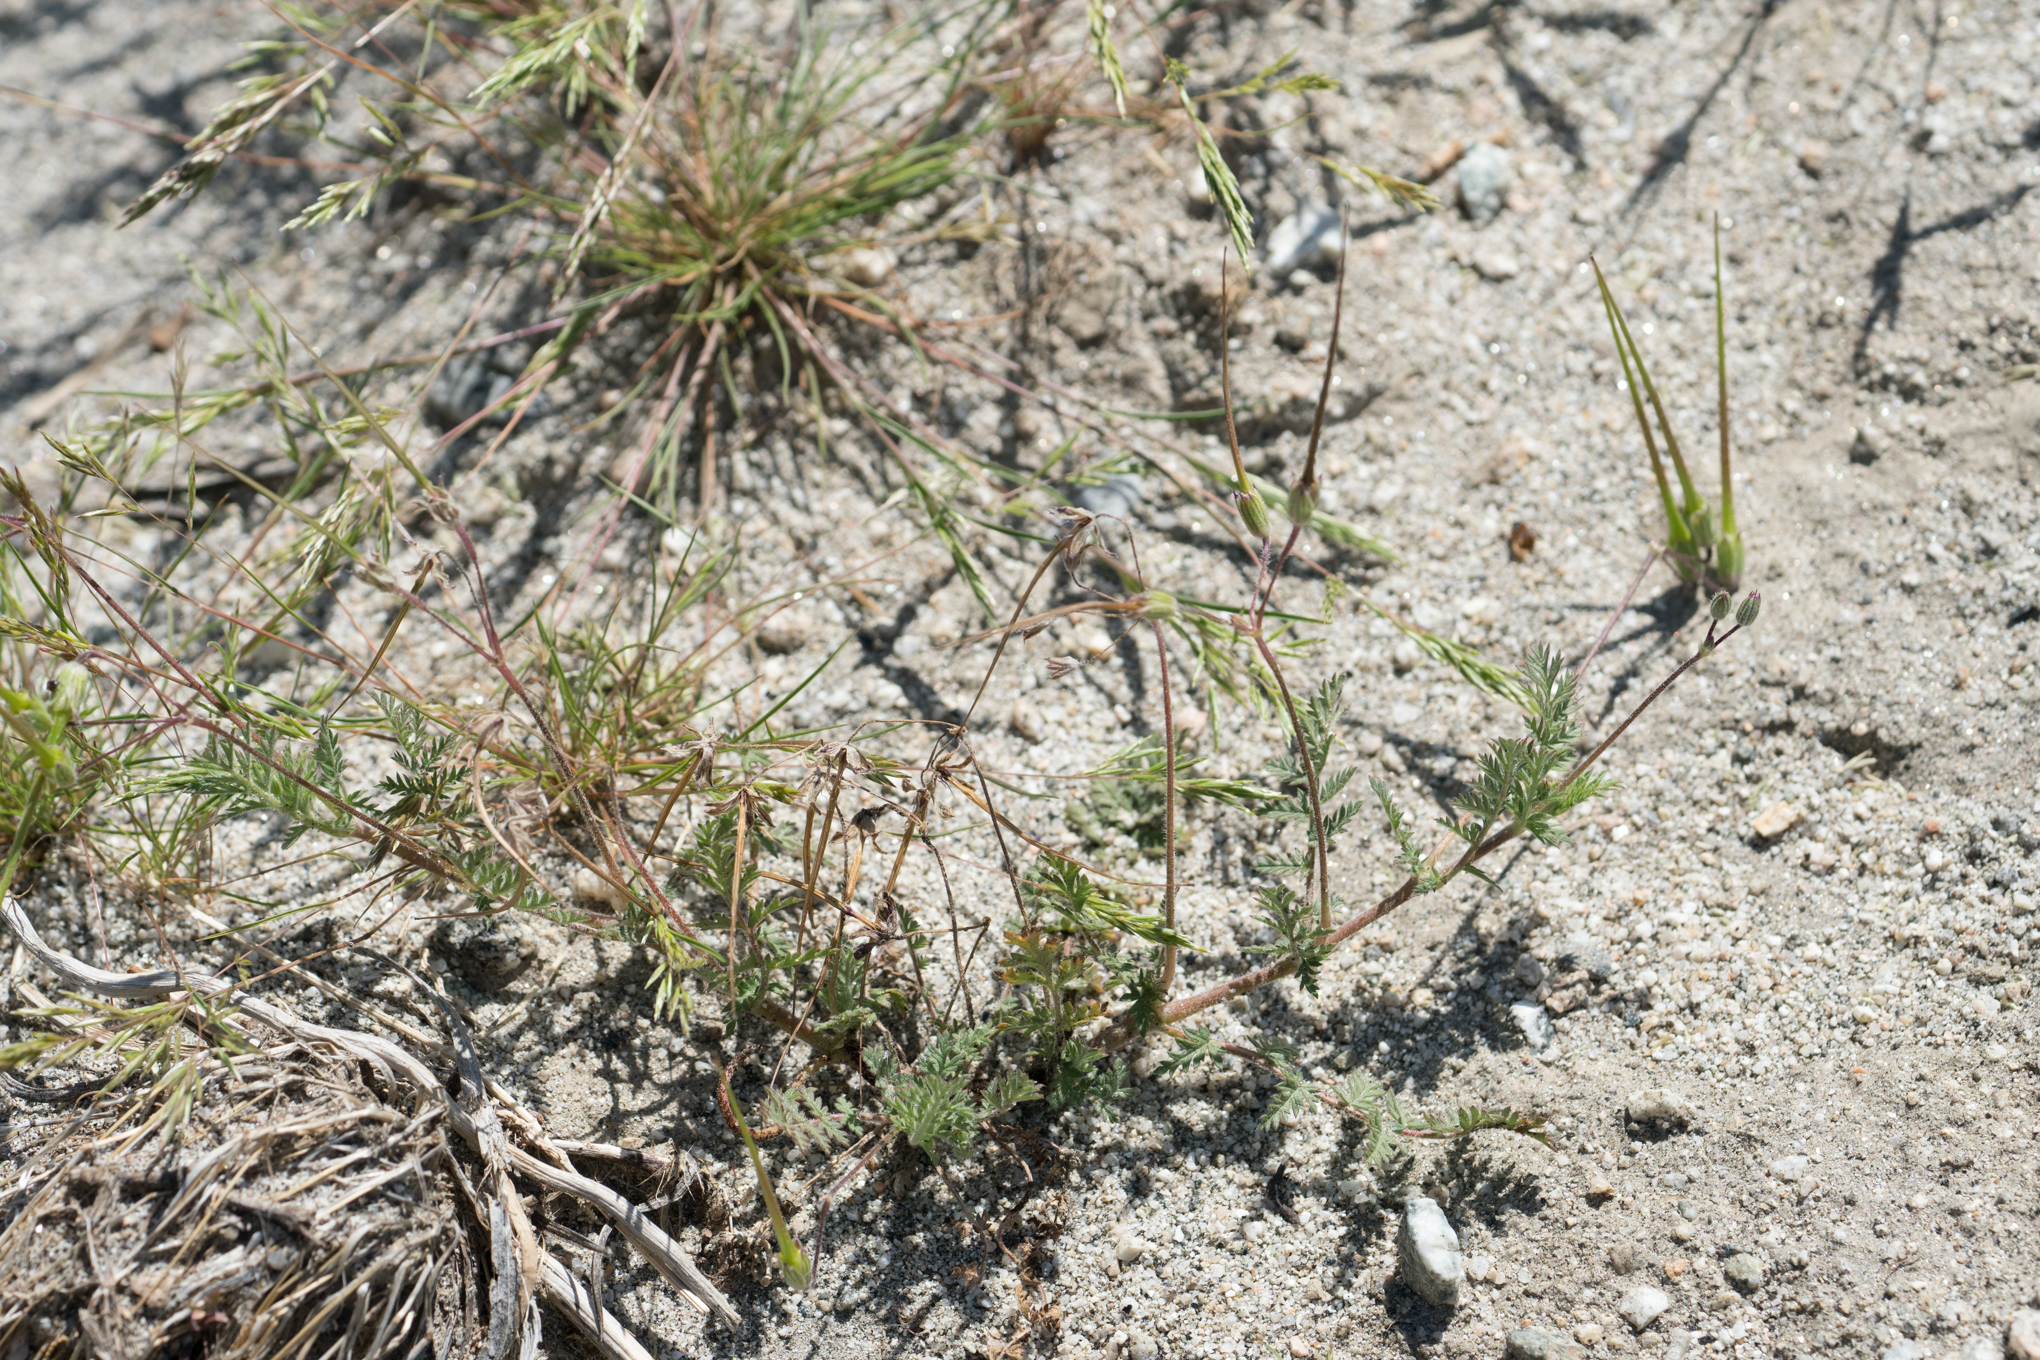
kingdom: Plantae
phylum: Tracheophyta
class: Magnoliopsida
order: Geraniales
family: Geraniaceae
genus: Erodium
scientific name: Erodium cicutarium
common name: Common stork's-bill
